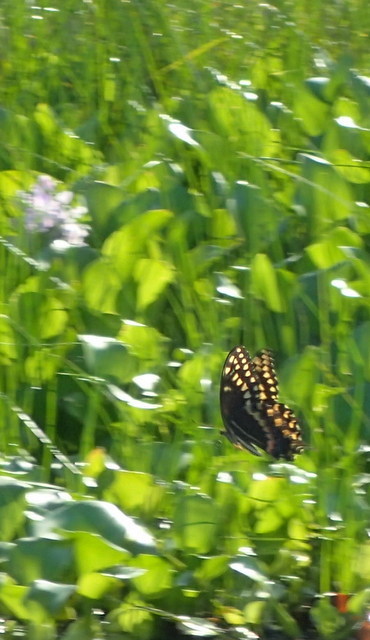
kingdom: Animalia
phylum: Arthropoda
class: Insecta
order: Lepidoptera
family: Papilionidae
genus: Papilio
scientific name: Papilio palamedes
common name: Palamedes swallowtail
